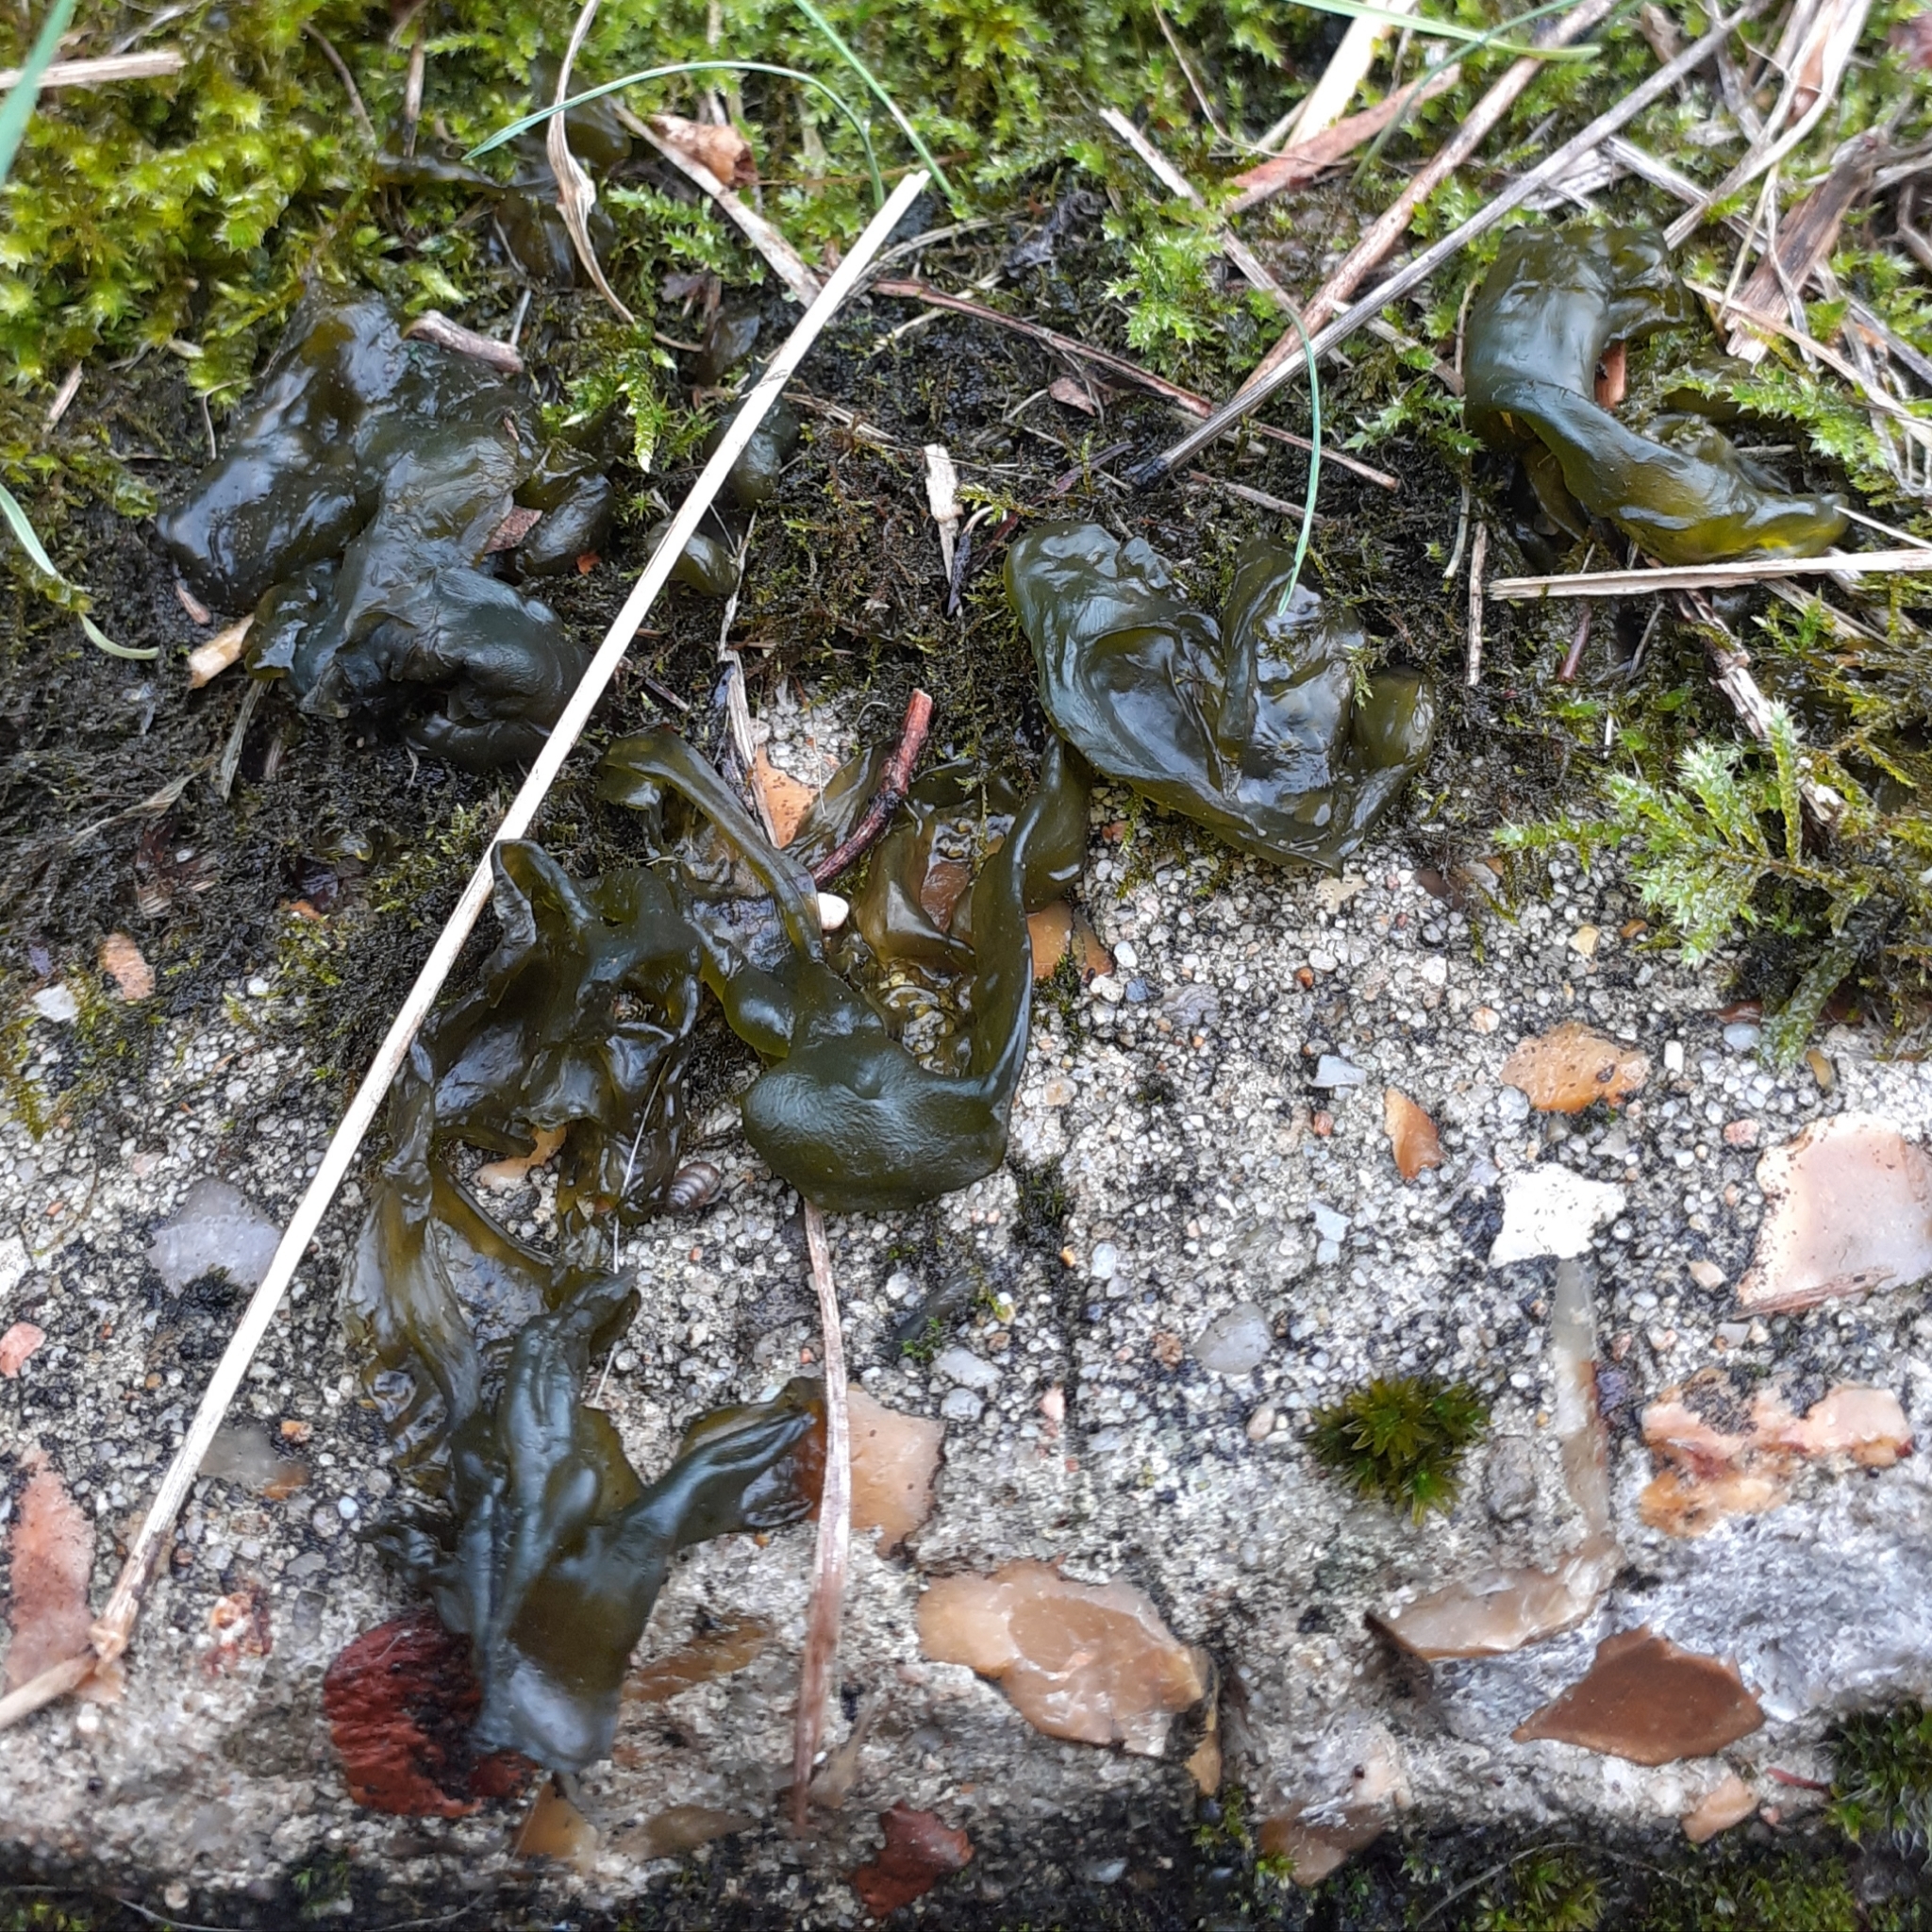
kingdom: Bacteria
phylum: Cyanobacteria
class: Cyanobacteriia
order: Cyanobacteriales
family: Nostocaceae
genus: Nostoc
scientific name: Nostoc commune
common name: Star jelly
